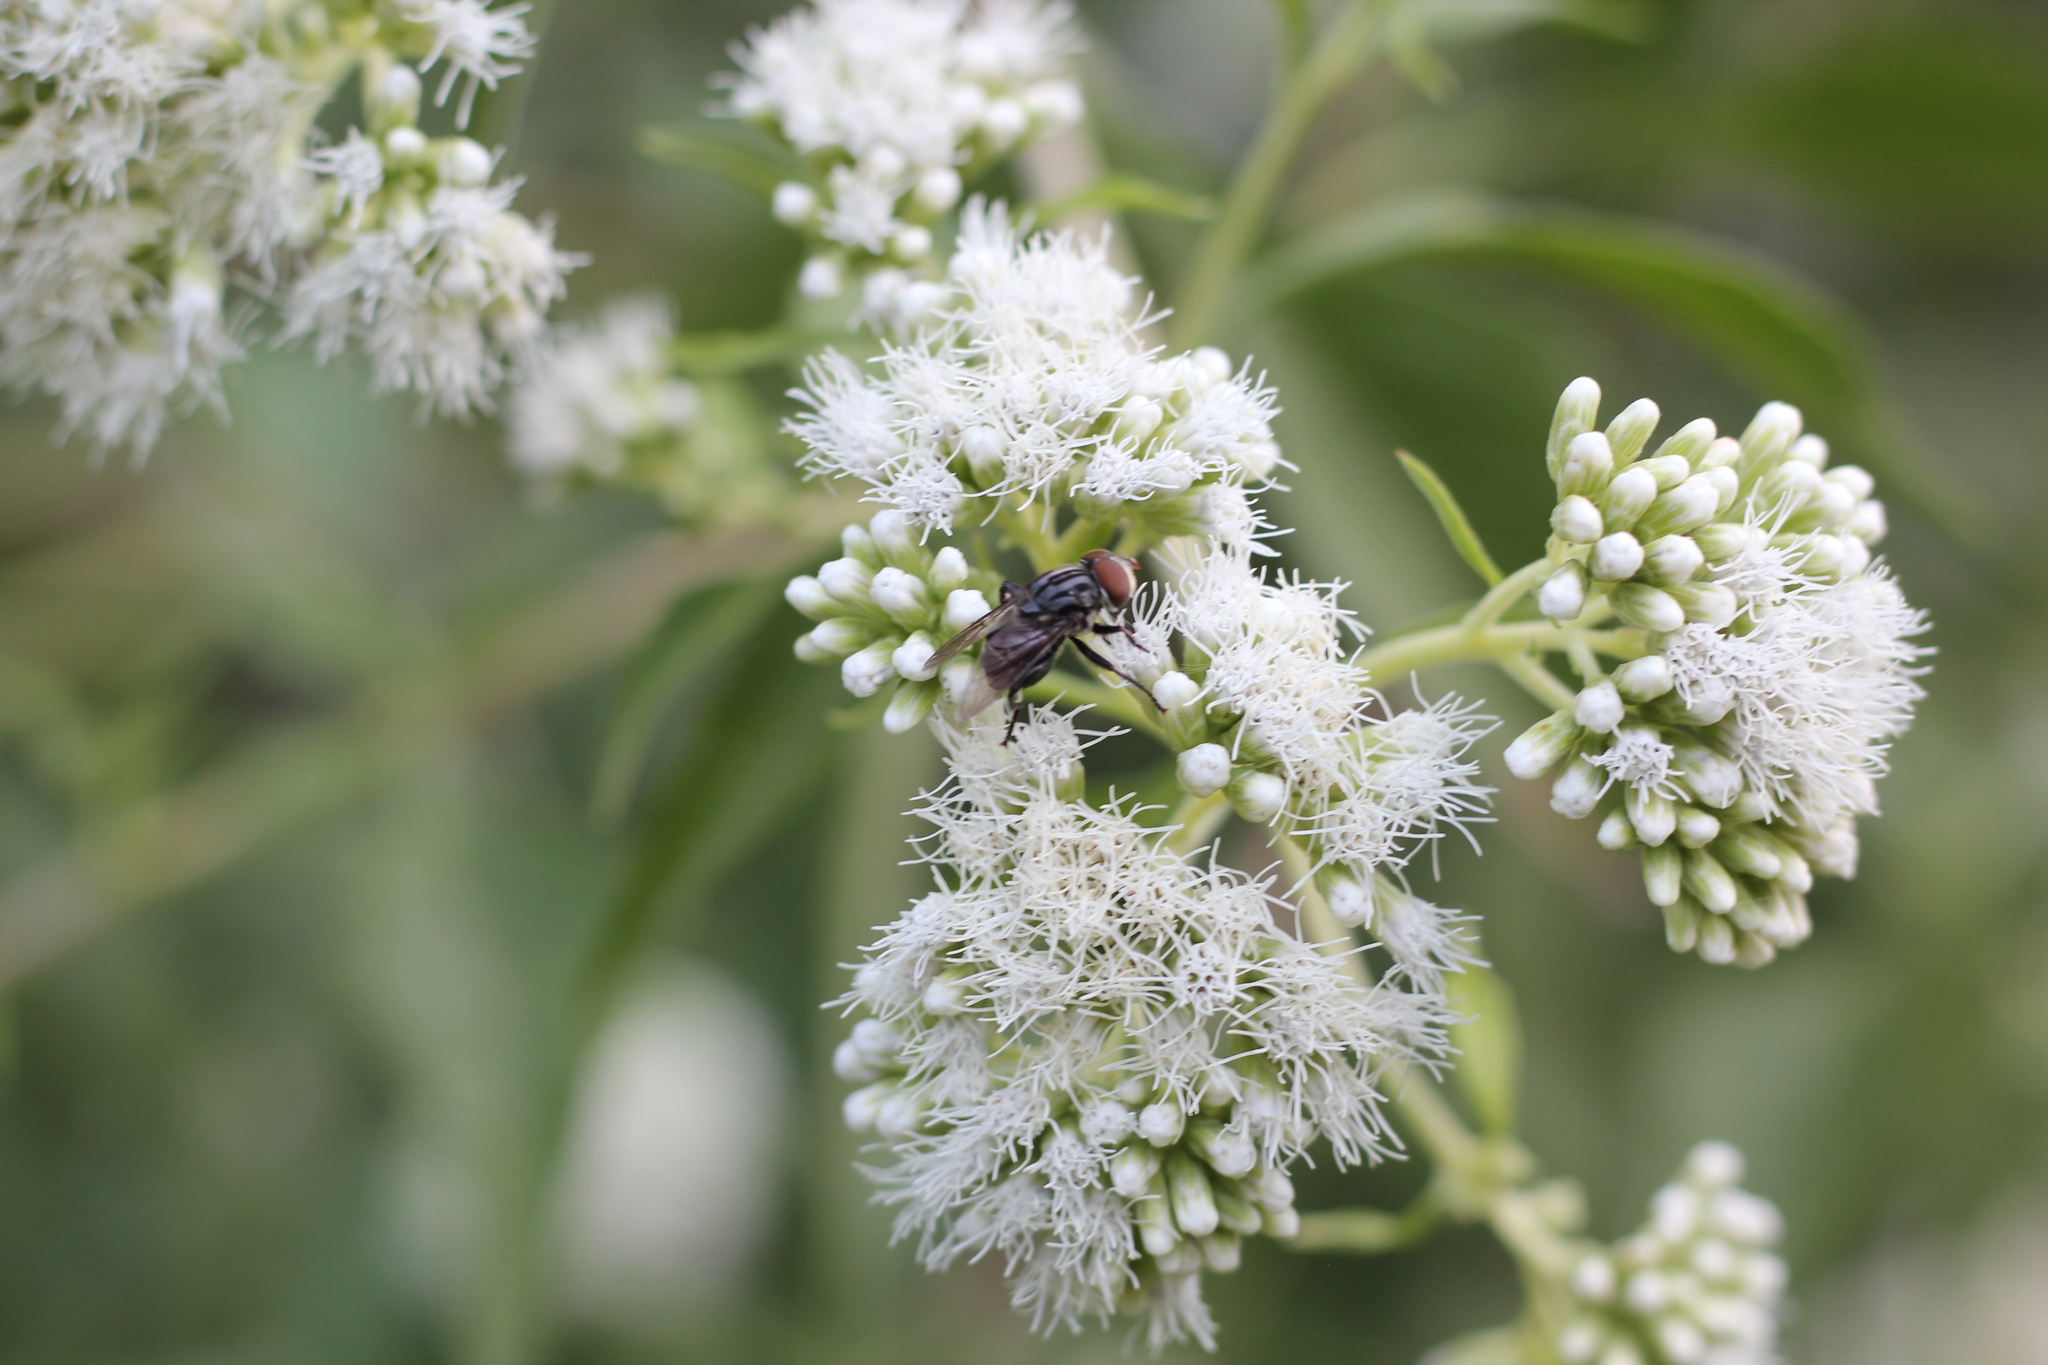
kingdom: Animalia
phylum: Arthropoda
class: Insecta
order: Diptera
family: Syrphidae
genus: Palpada
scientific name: Palpada furcata
